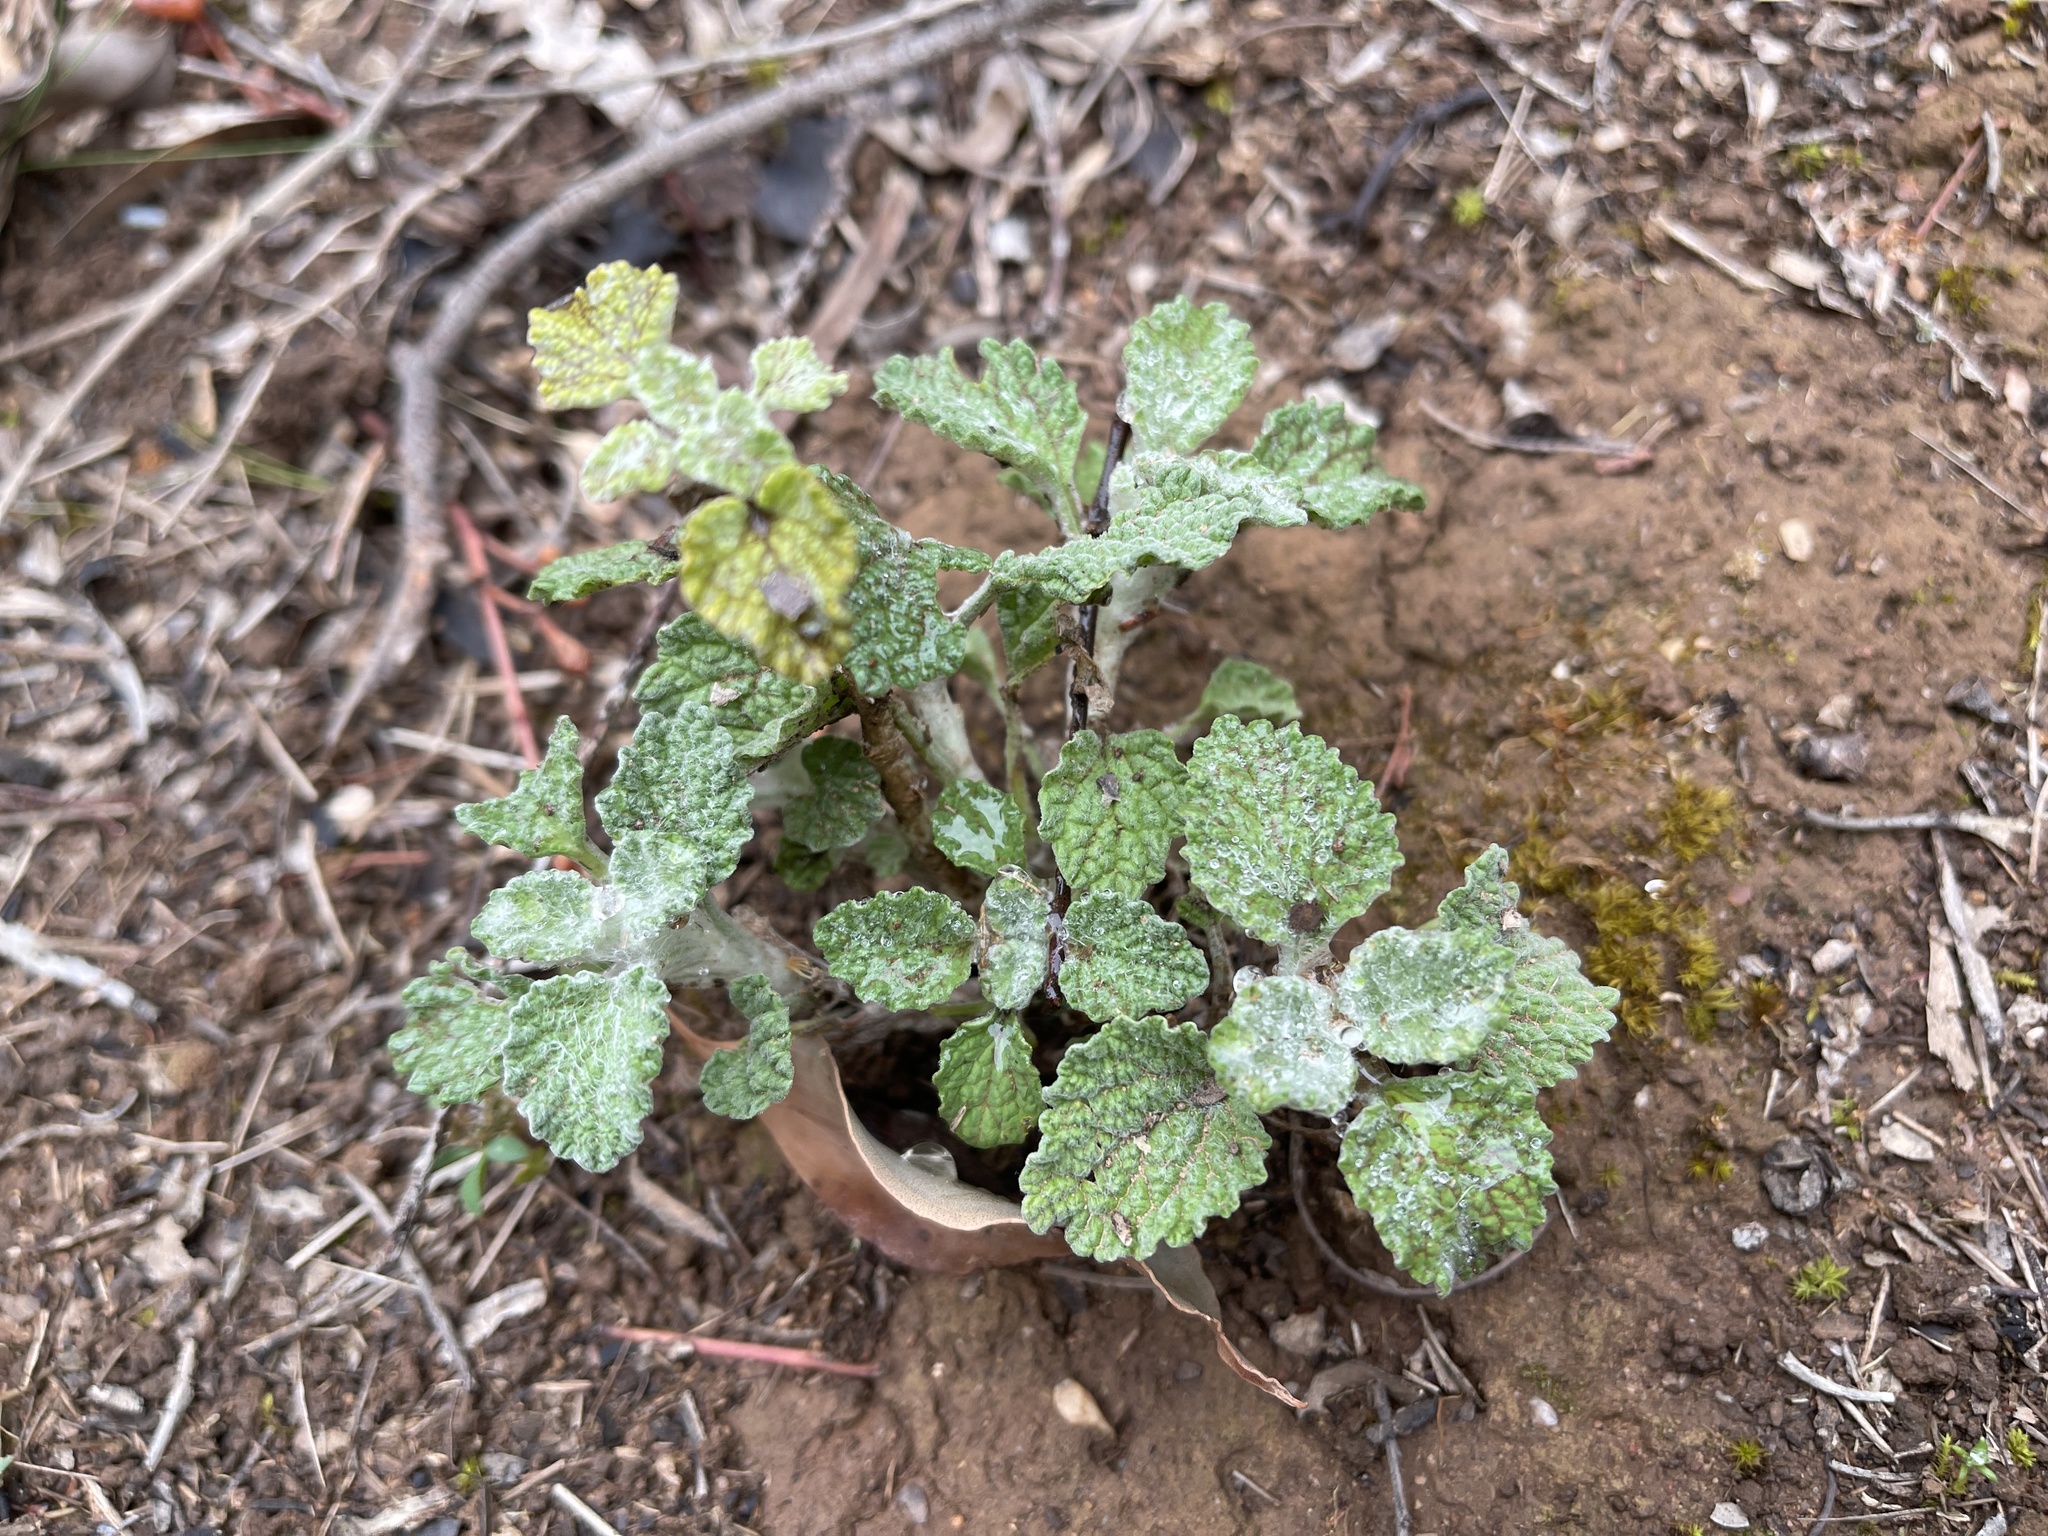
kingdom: Plantae
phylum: Tracheophyta
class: Magnoliopsida
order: Lamiales
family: Lamiaceae
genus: Marrubium
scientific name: Marrubium vulgare
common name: Horehound
